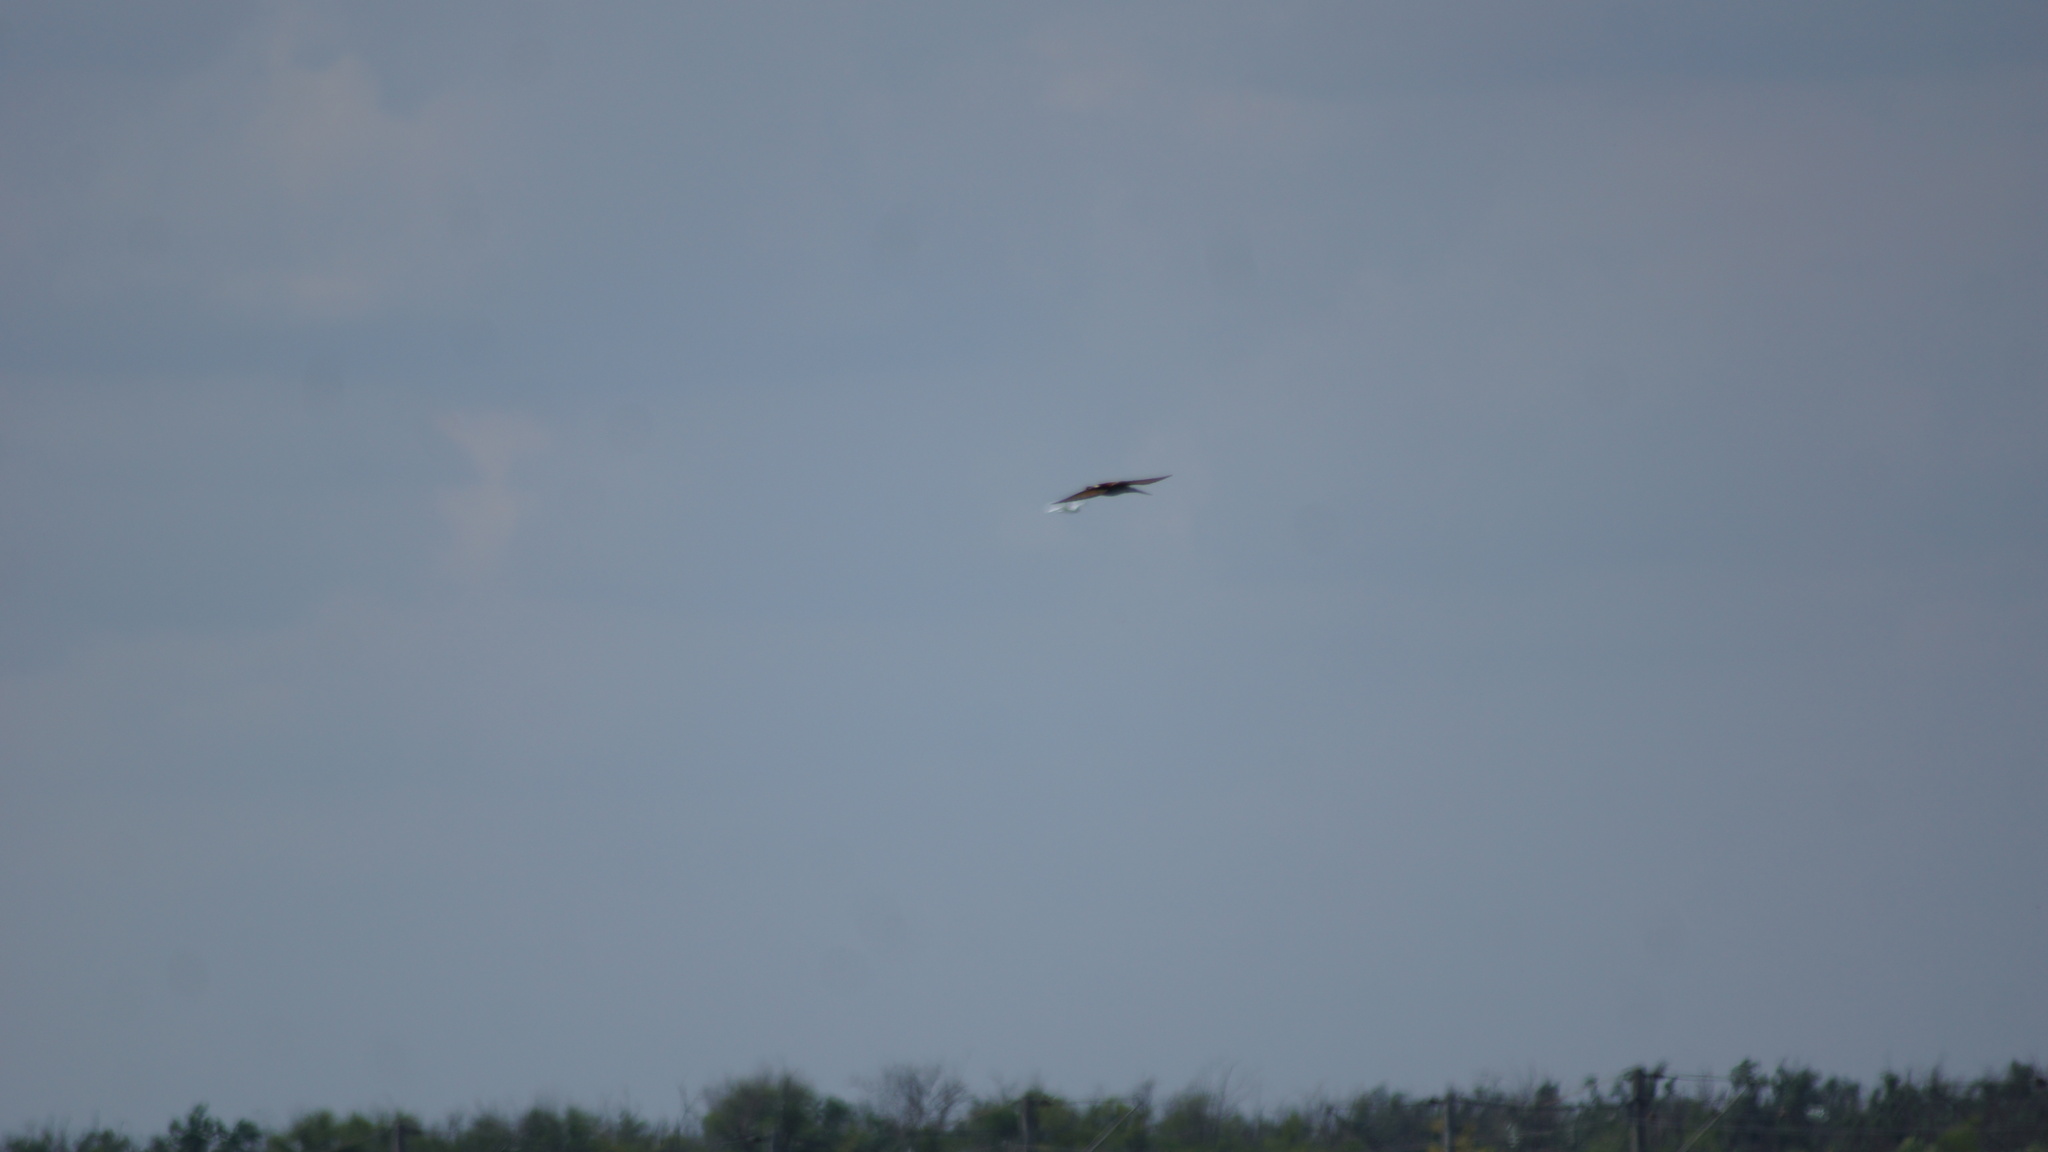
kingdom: Animalia
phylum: Chordata
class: Aves
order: Coraciiformes
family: Meropidae
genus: Merops
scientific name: Merops apiaster
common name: European bee-eater
